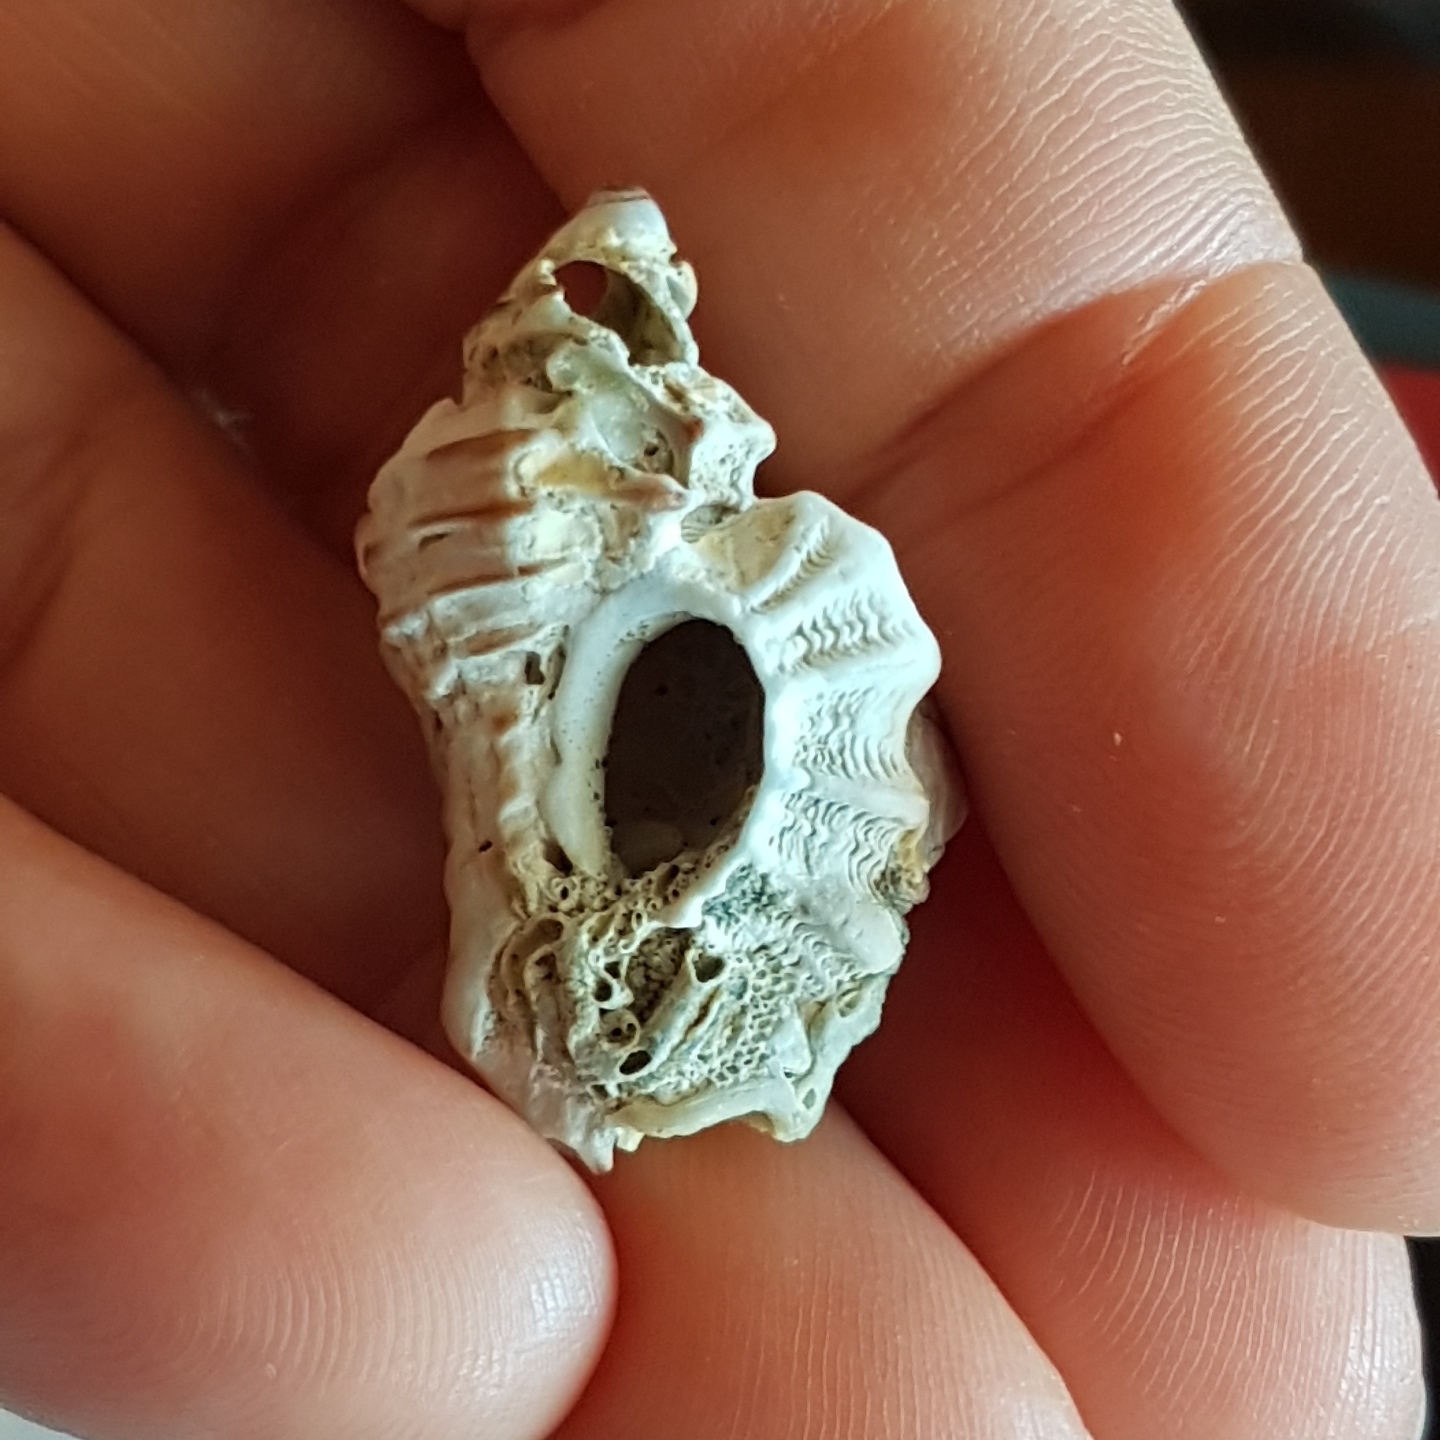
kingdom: Animalia
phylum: Mollusca
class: Gastropoda
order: Neogastropoda
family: Muricidae
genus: Ocenebra
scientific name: Ocenebra erinaceus
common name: European sting winkle
